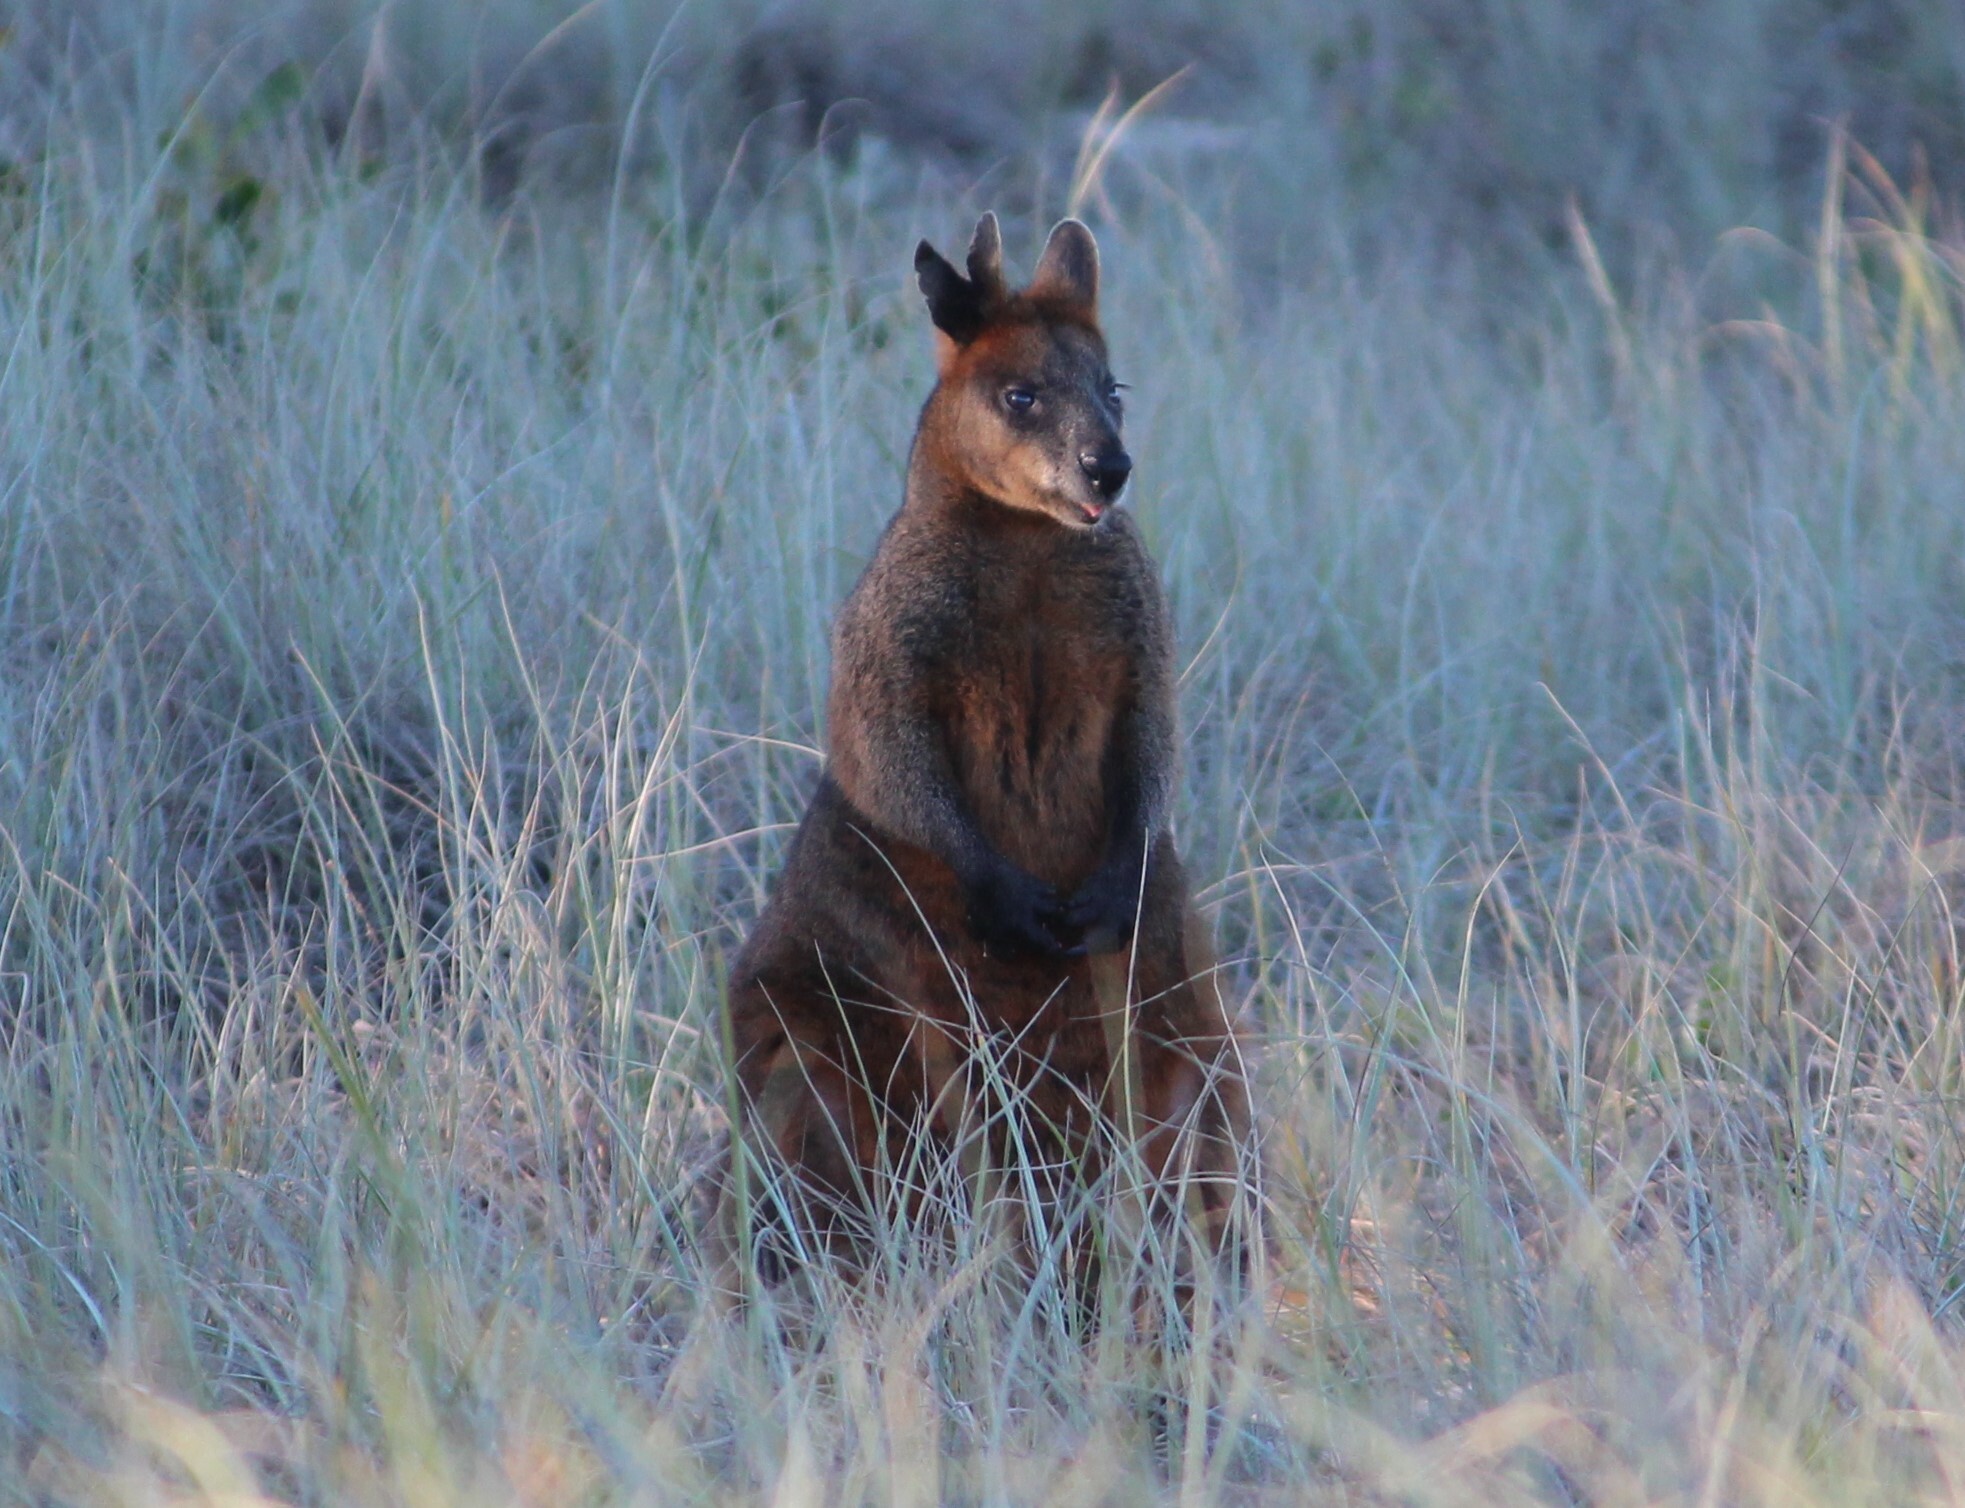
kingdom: Animalia
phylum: Chordata
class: Mammalia
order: Diprotodontia
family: Macropodidae
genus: Wallabia
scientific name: Wallabia bicolor
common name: Swamp wallaby
